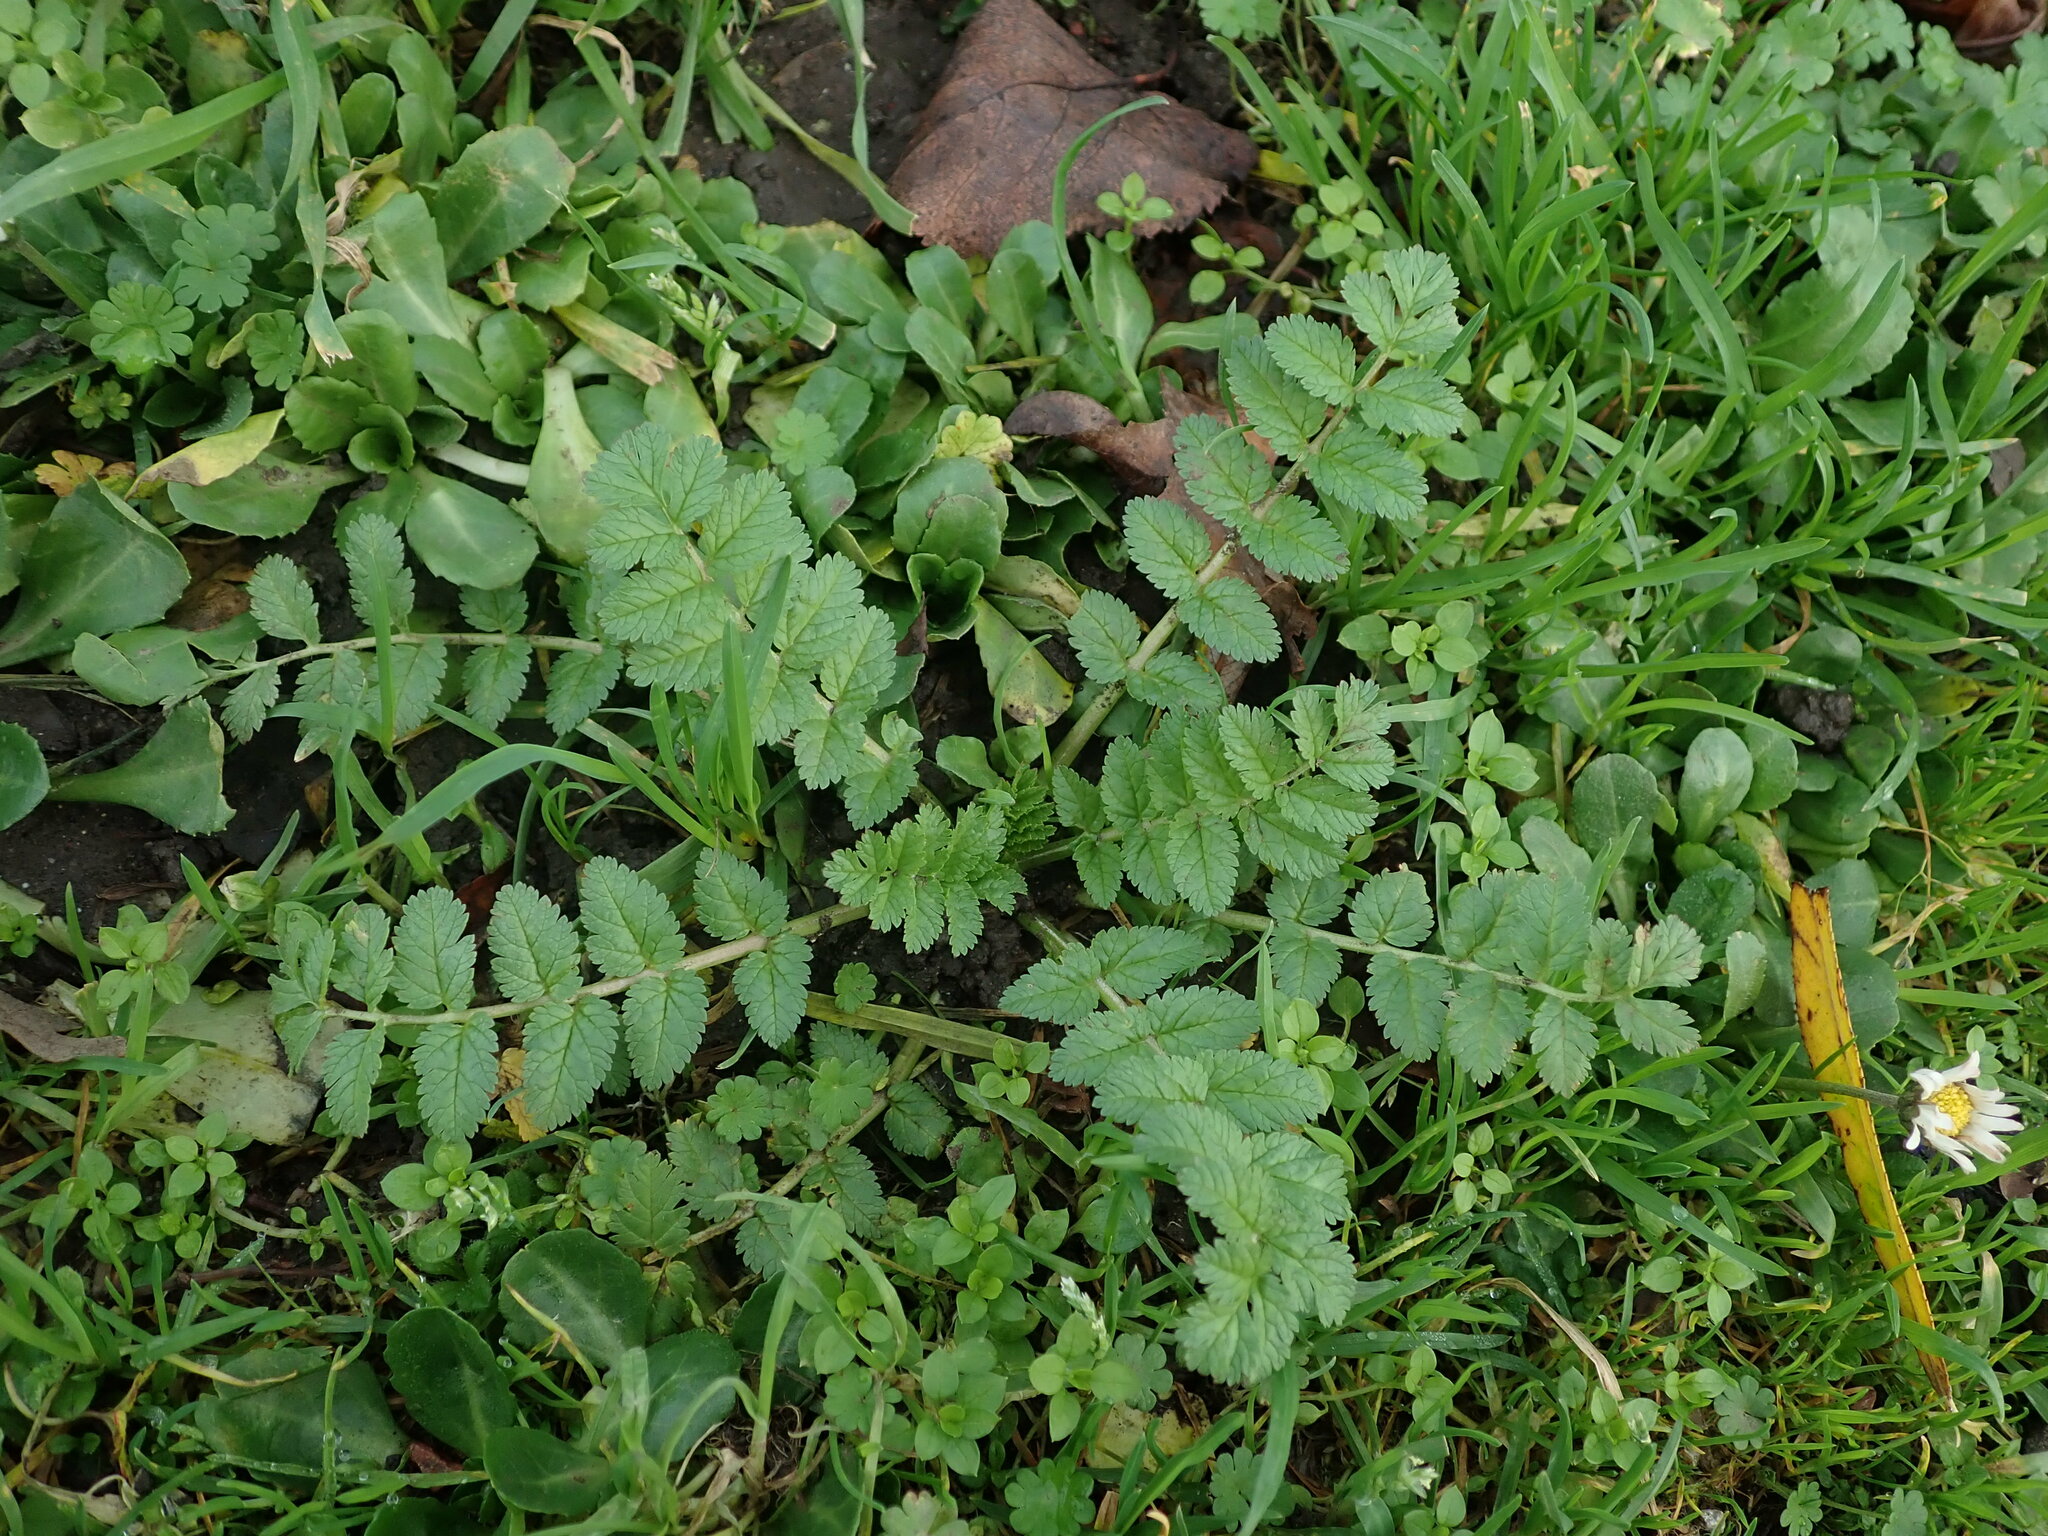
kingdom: Plantae
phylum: Tracheophyta
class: Magnoliopsida
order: Geraniales
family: Geraniaceae
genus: Erodium
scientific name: Erodium moschatum
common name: Musk stork's-bill
